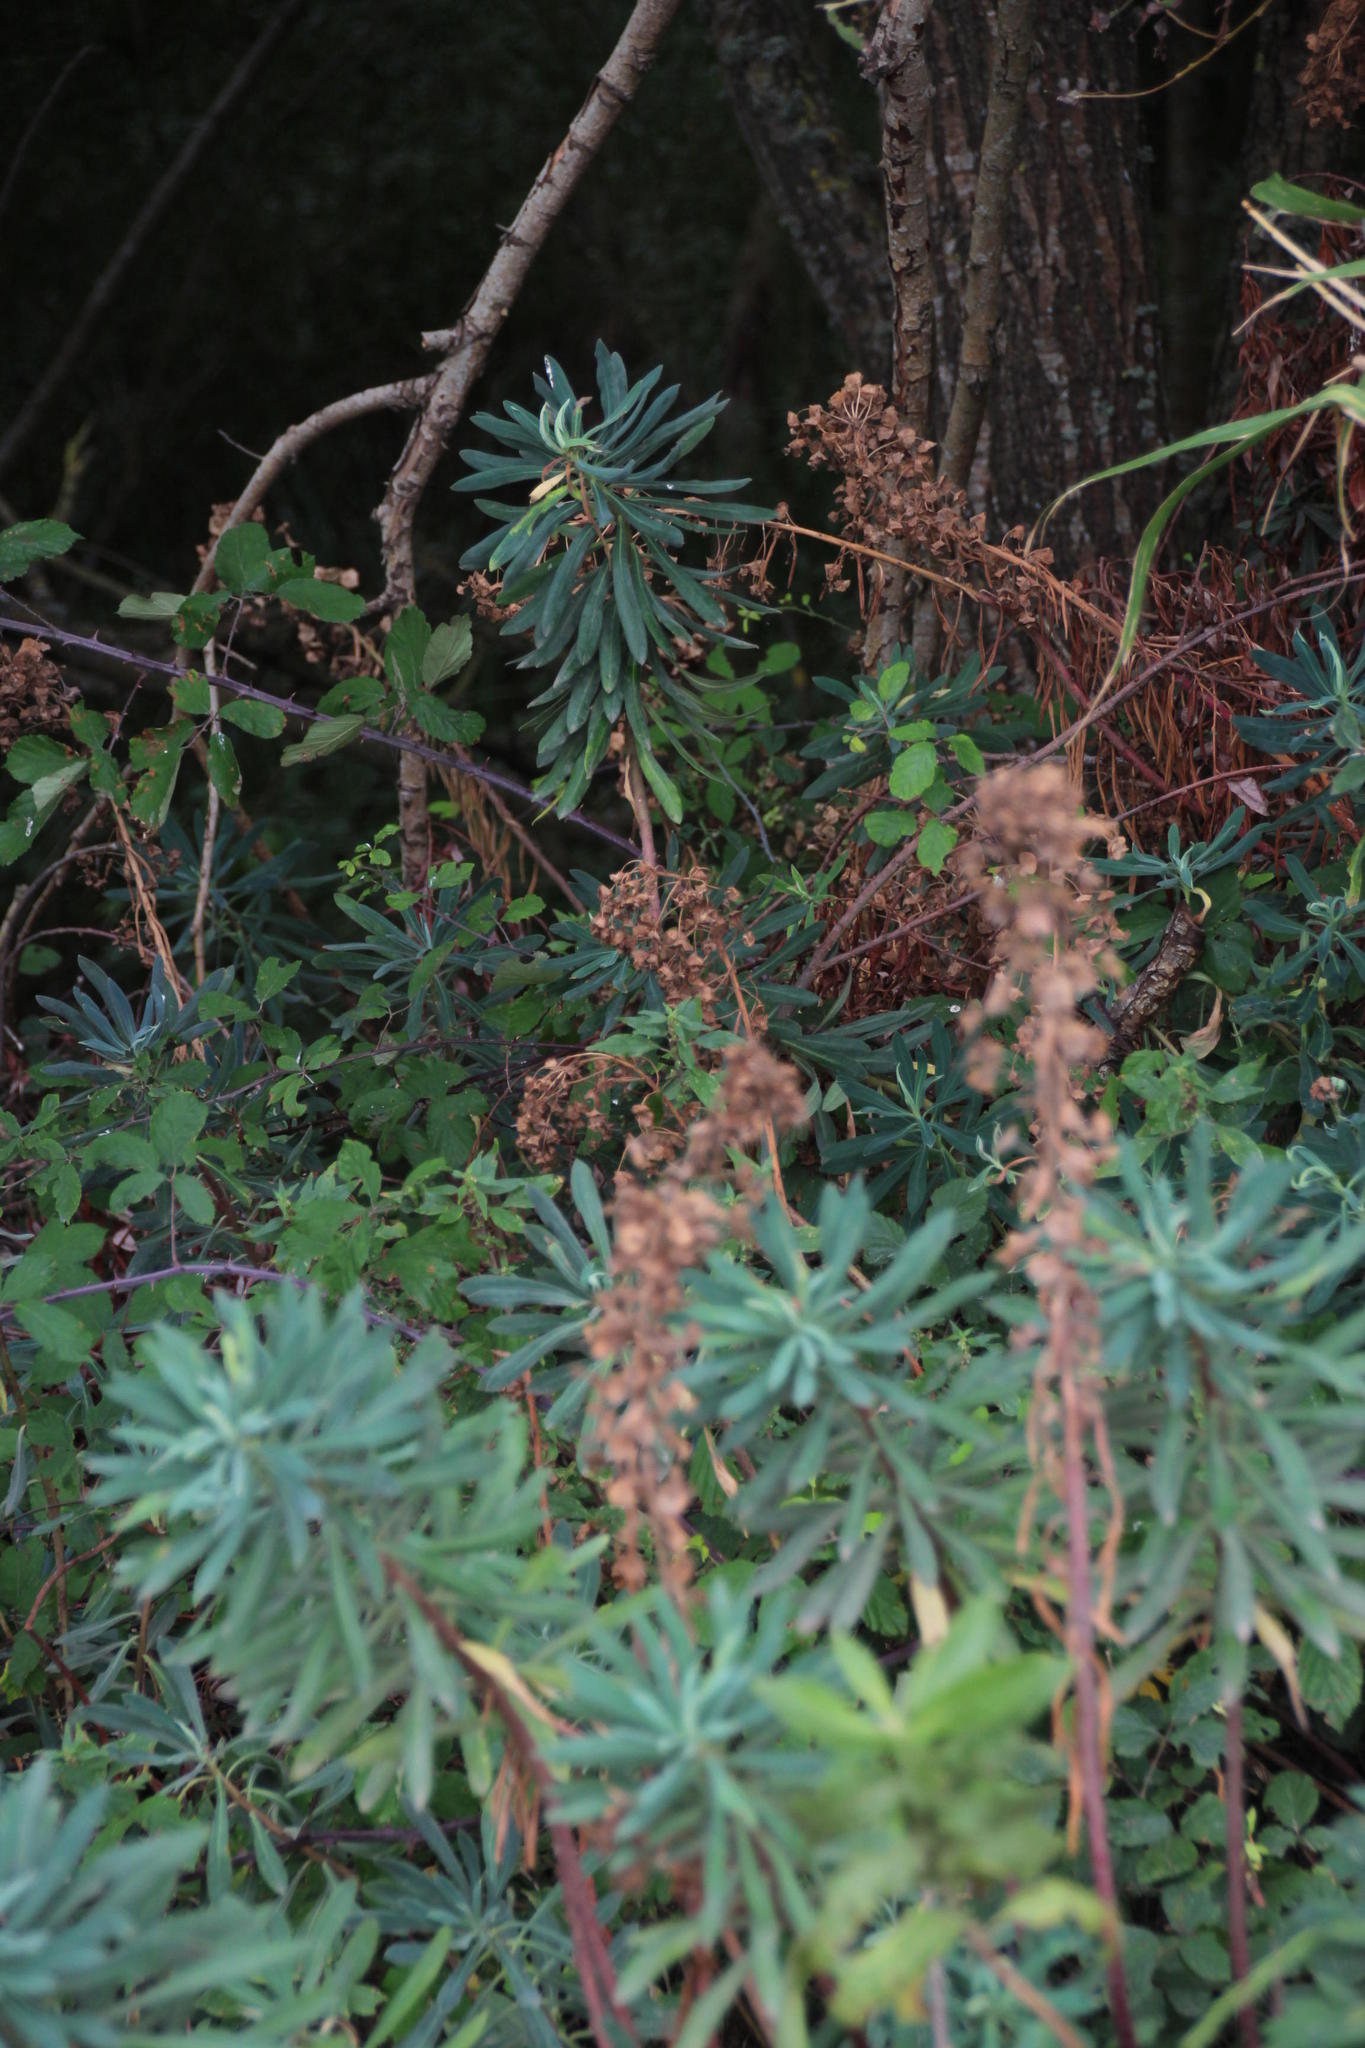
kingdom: Plantae
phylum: Tracheophyta
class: Magnoliopsida
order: Malpighiales
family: Euphorbiaceae
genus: Euphorbia
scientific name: Euphorbia characias
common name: Mediterranean spurge
